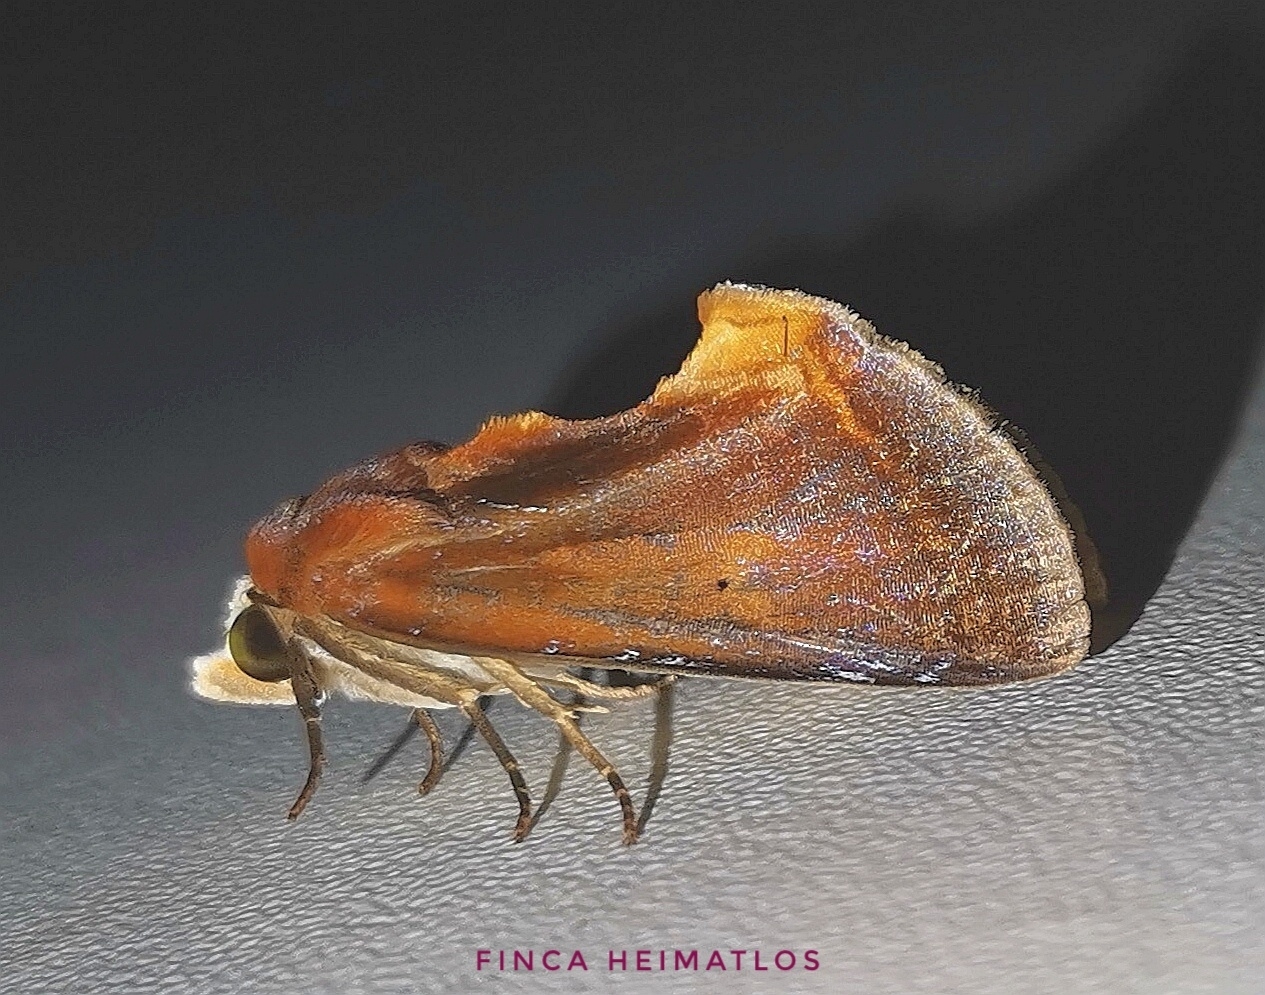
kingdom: Animalia
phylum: Arthropoda
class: Insecta
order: Lepidoptera
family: Erebidae
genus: Gonodonta
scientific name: Gonodonta fulvangula
